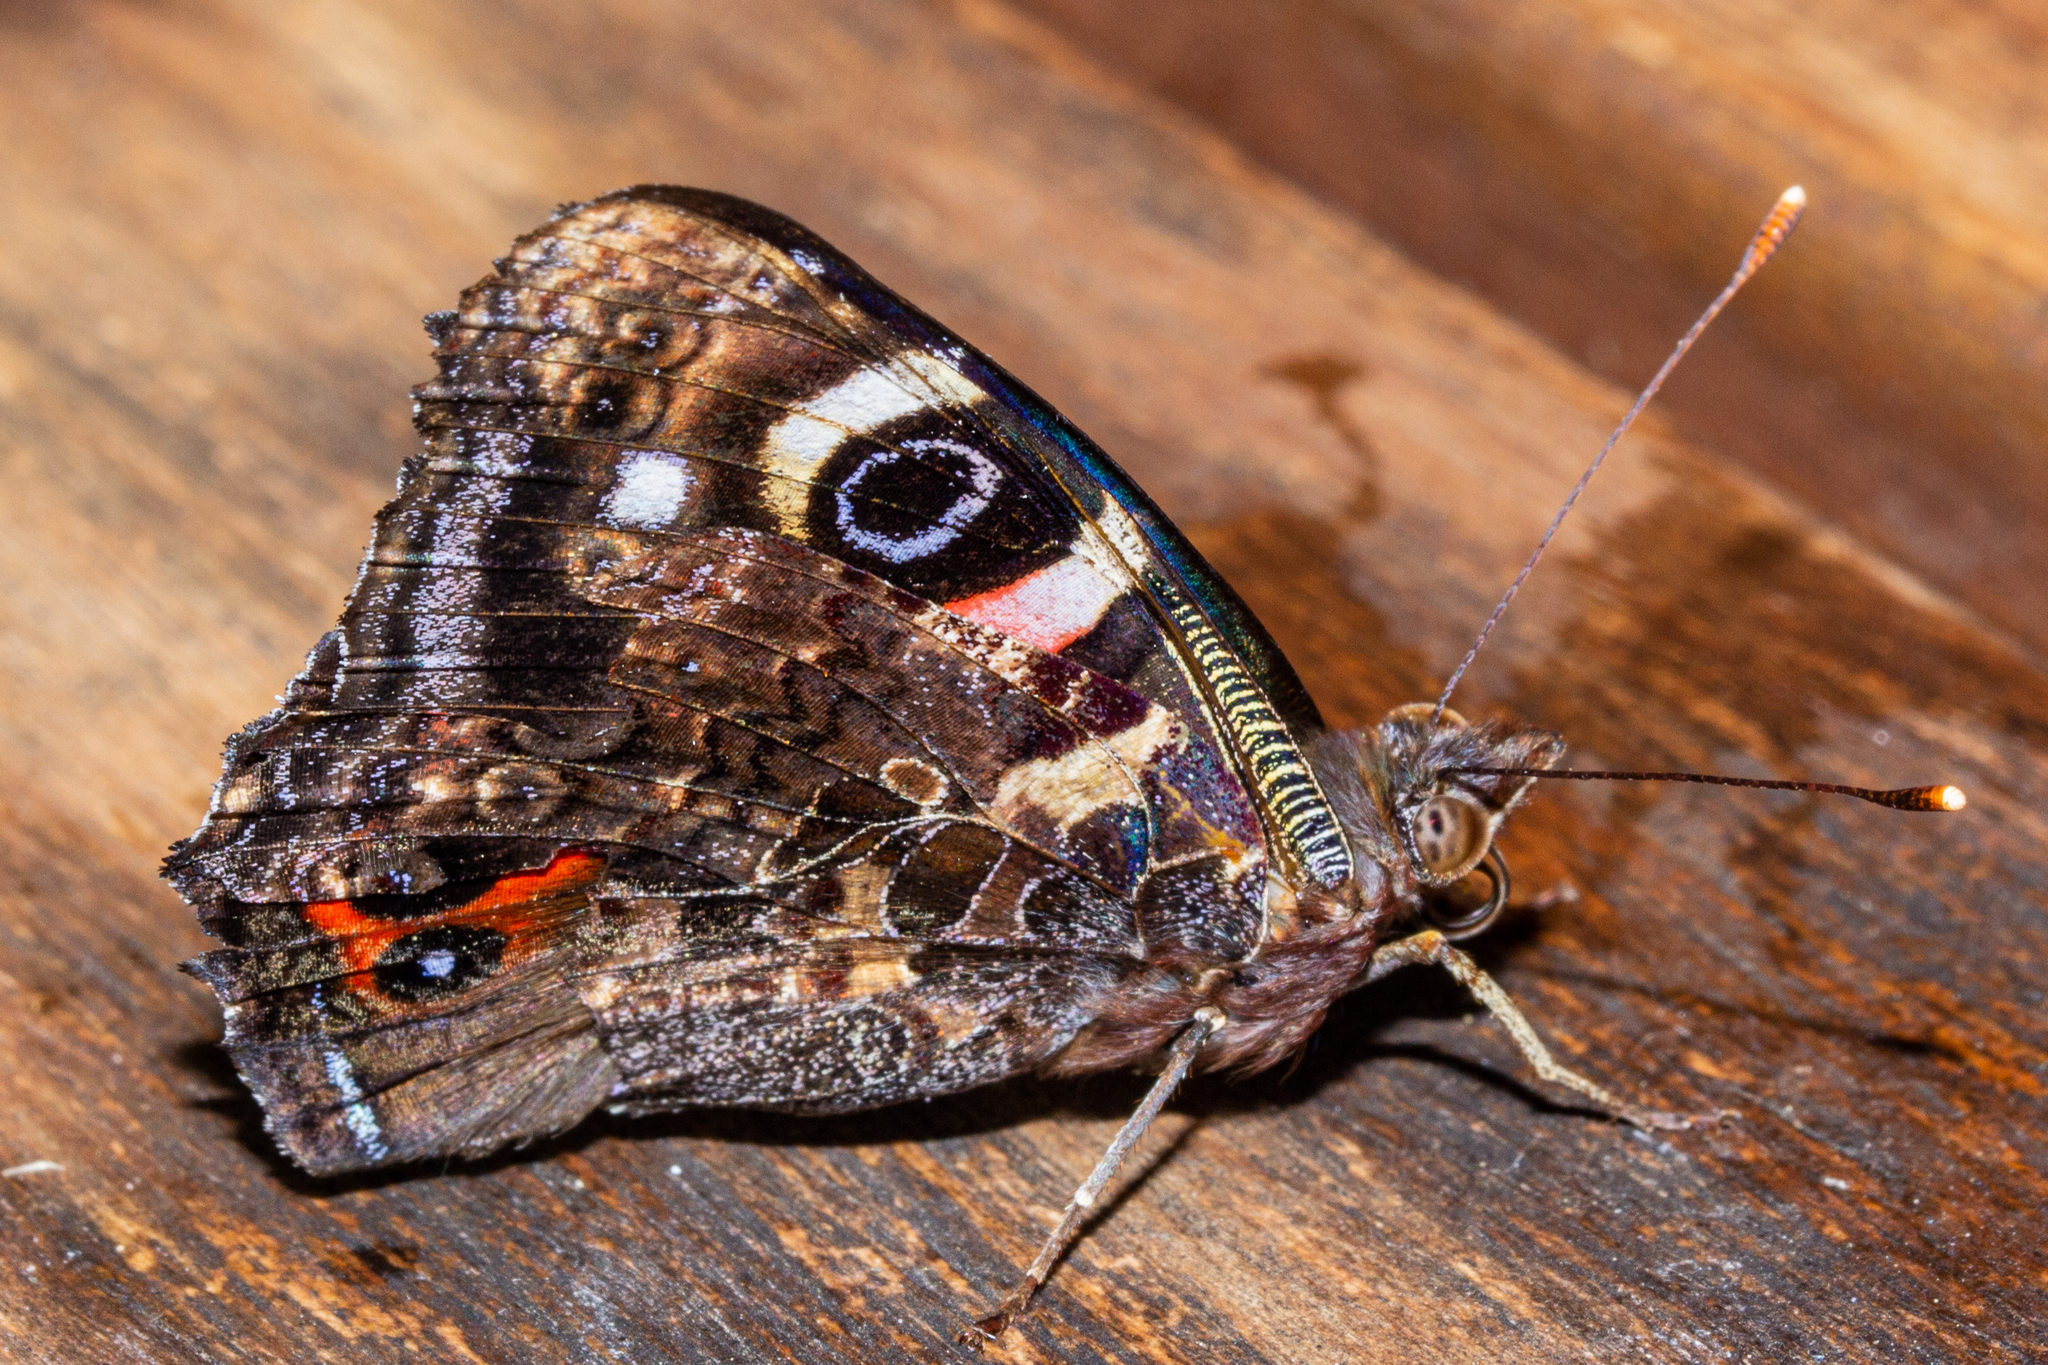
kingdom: Animalia
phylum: Arthropoda
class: Insecta
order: Lepidoptera
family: Nymphalidae
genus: Vanessa
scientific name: Vanessa gonerilla
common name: New zealand red admiral
